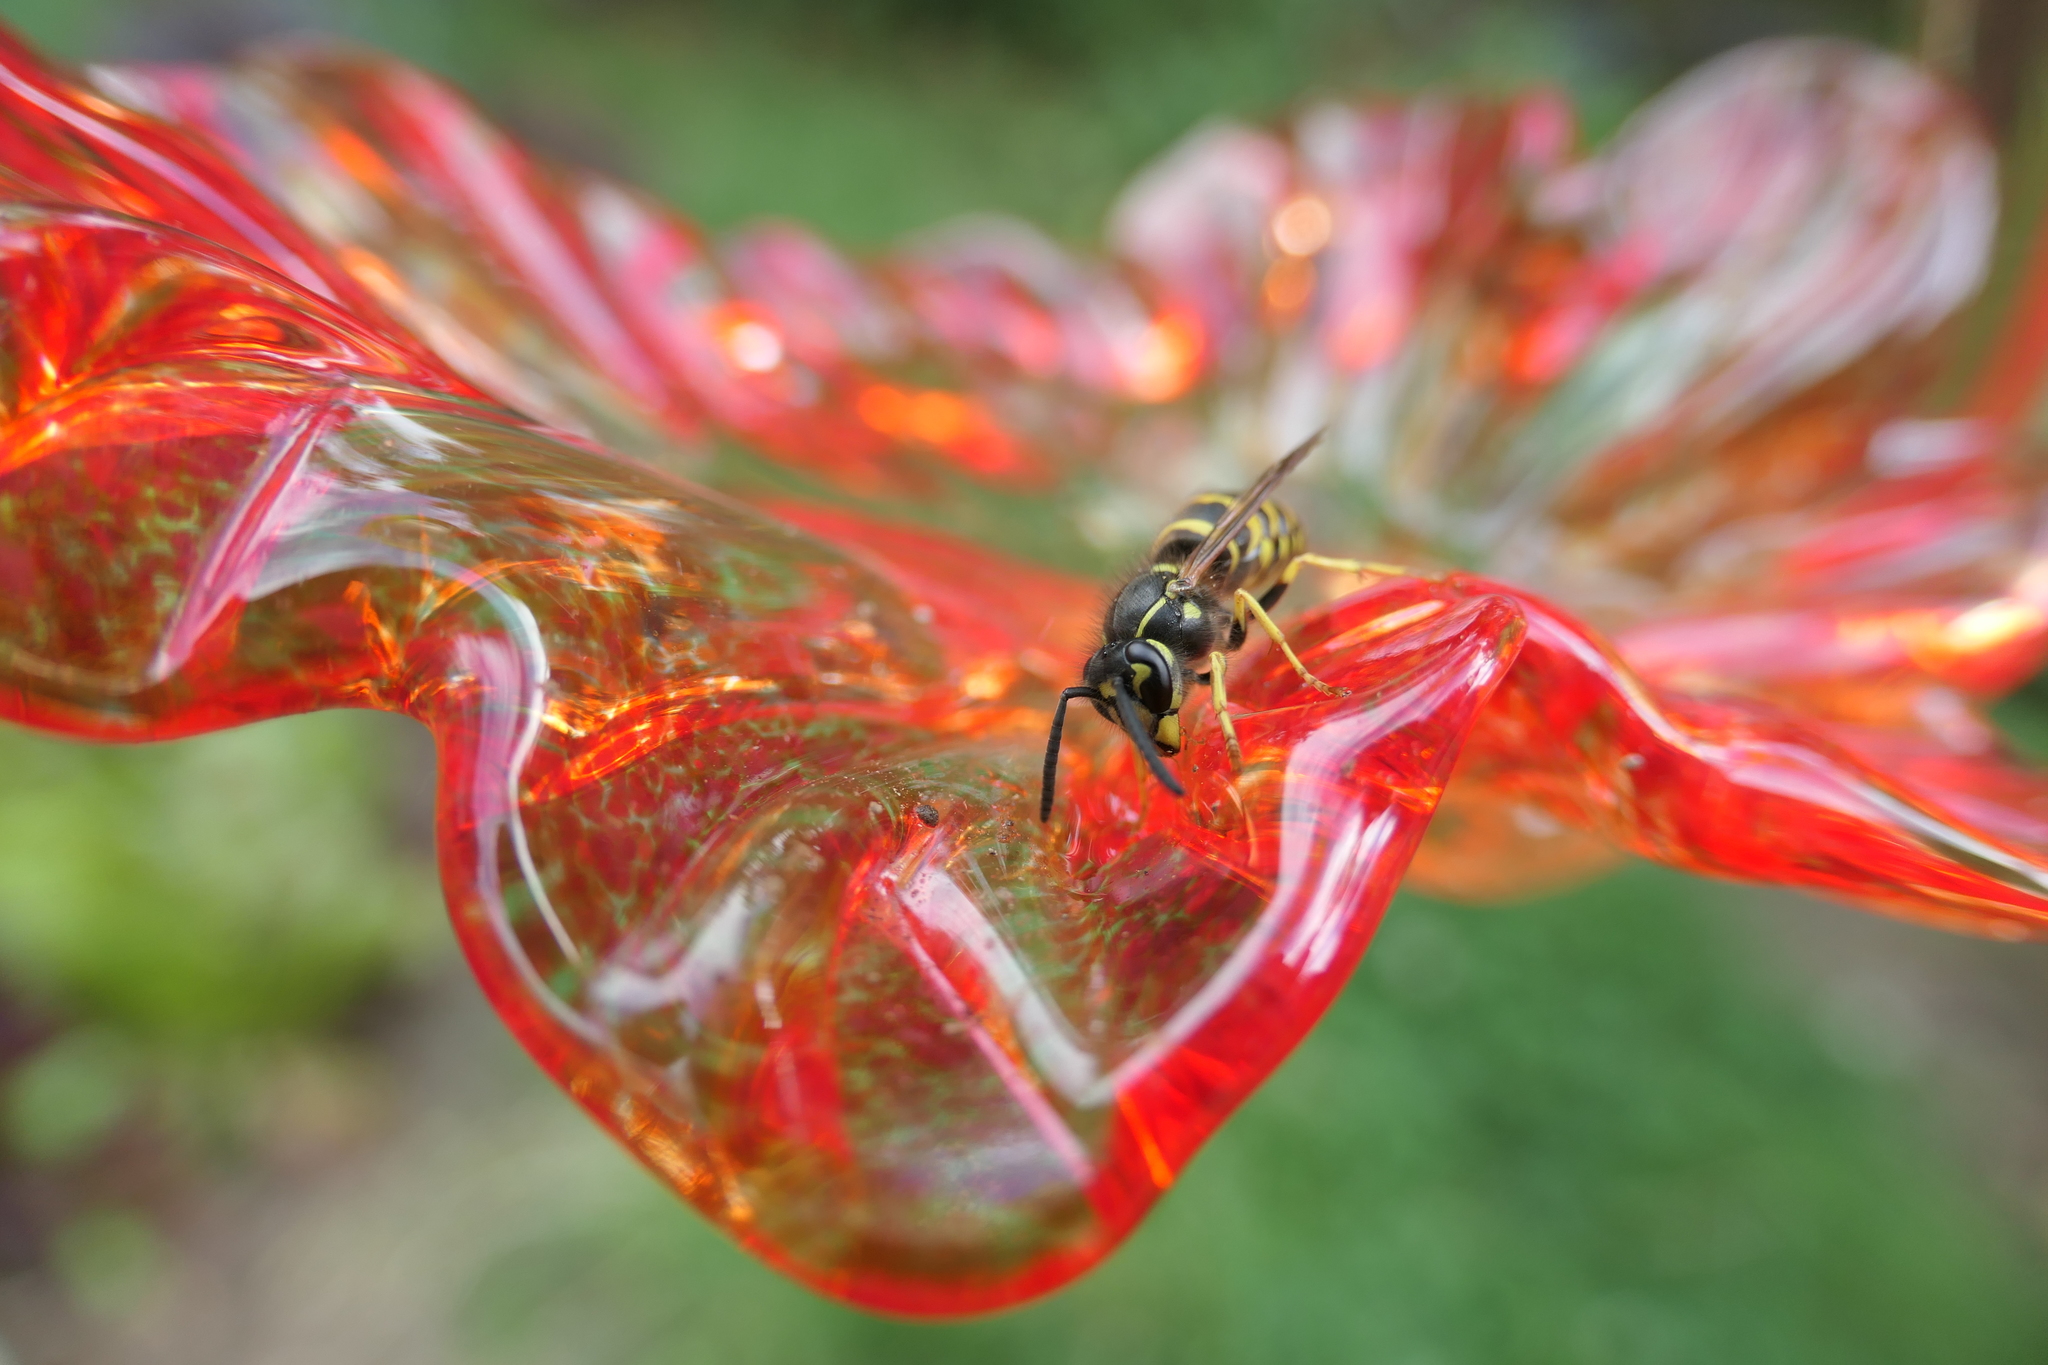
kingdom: Animalia
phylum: Arthropoda
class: Insecta
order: Hymenoptera
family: Vespidae
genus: Vespula
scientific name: Vespula alascensis
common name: Alaska yellowjacket
